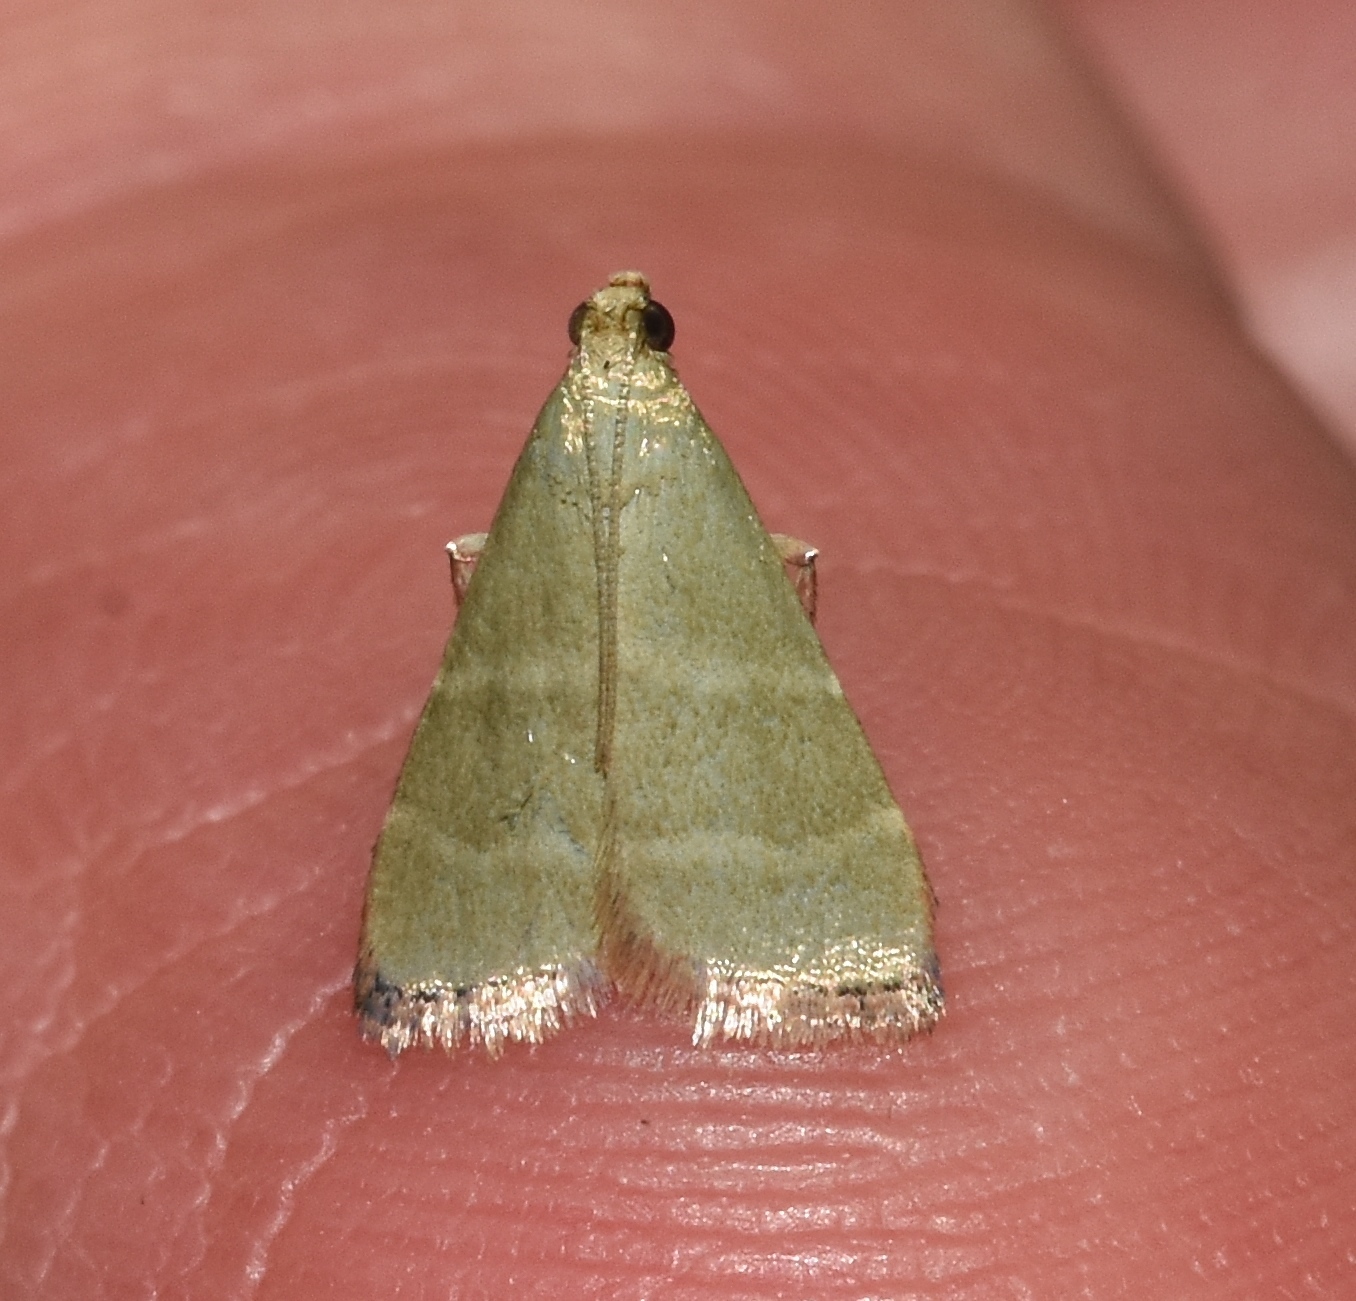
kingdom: Animalia
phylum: Arthropoda
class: Insecta
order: Lepidoptera
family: Pyralidae
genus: Arta
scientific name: Arta olivalis
